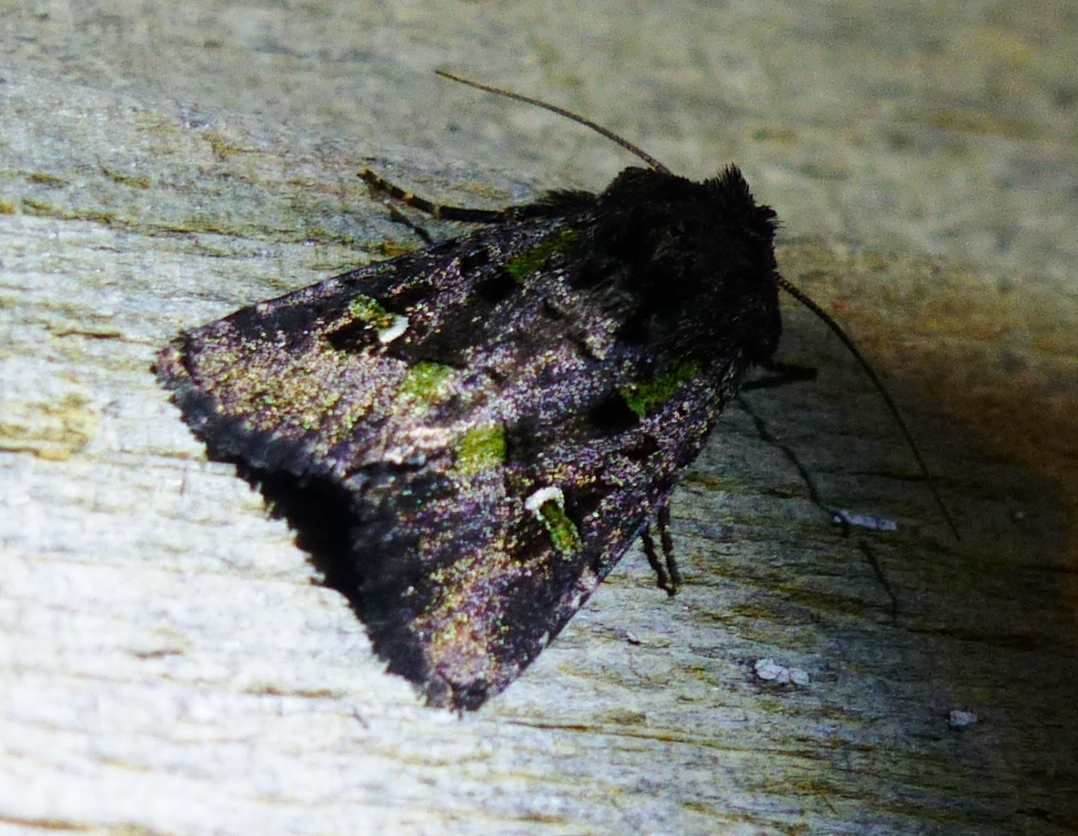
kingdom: Animalia
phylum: Arthropoda
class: Insecta
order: Lepidoptera
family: Noctuidae
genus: Lacinipolia
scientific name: Lacinipolia renigera
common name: Kidney-spotted minor
